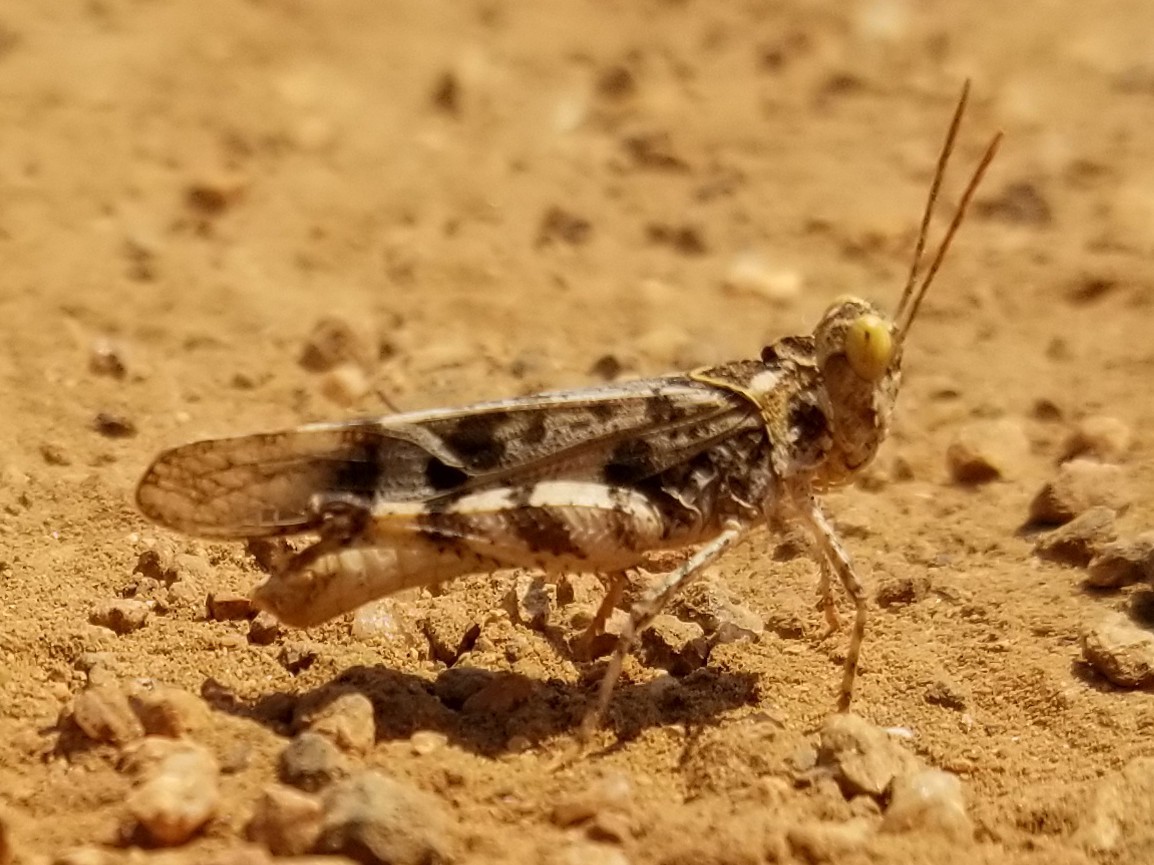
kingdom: Animalia
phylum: Arthropoda
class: Insecta
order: Orthoptera
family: Acrididae
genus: Dissosteira
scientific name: Dissosteira pictipennis
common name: California rose-winged grasshopper
